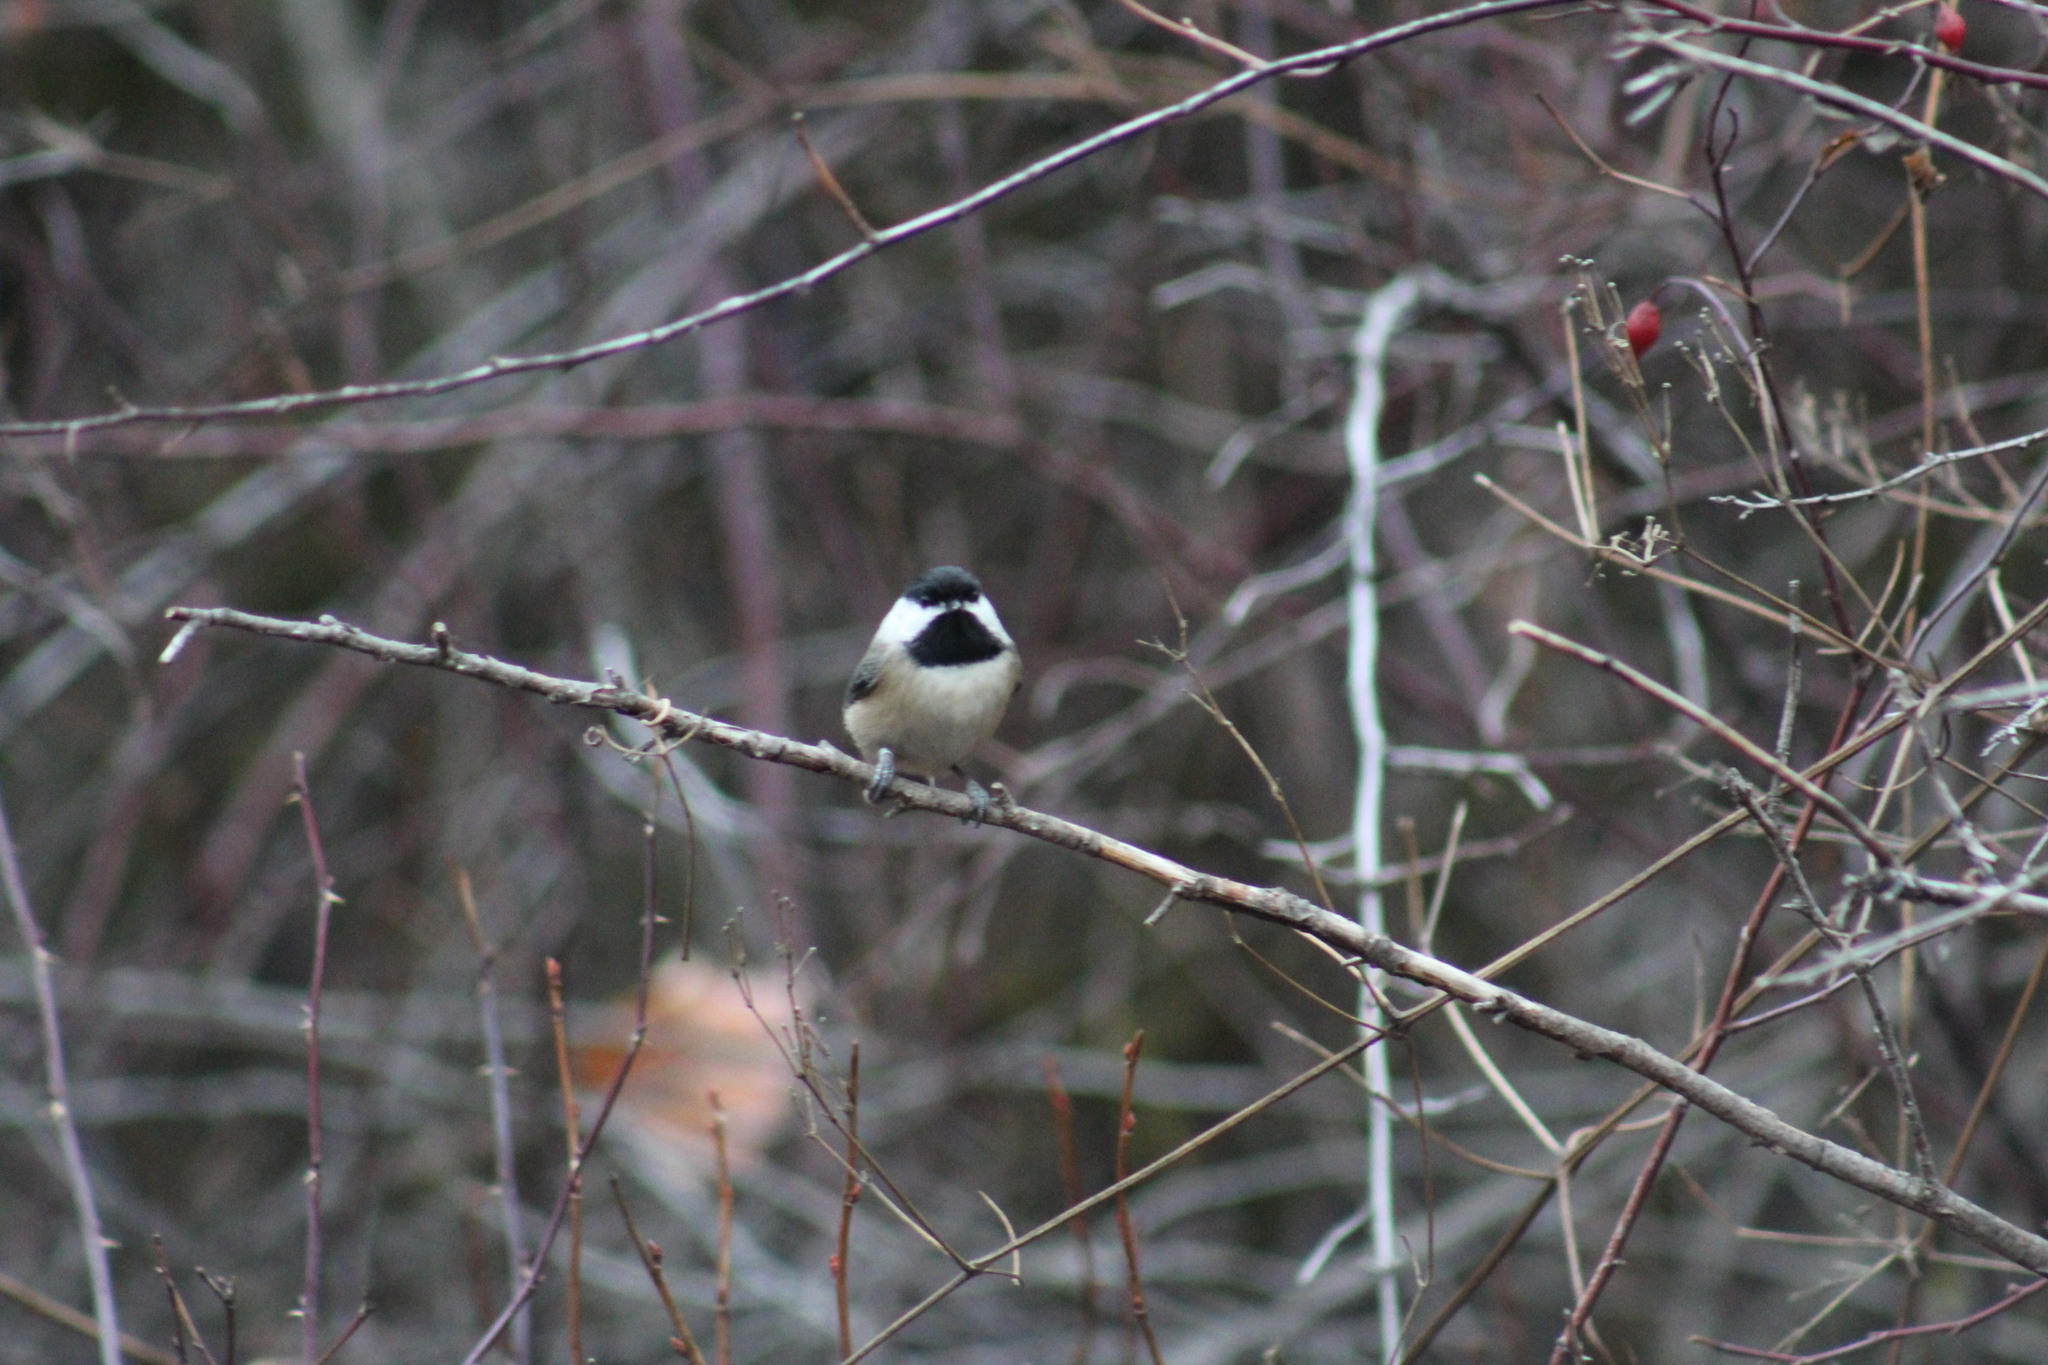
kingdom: Animalia
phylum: Chordata
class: Aves
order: Passeriformes
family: Paridae
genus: Poecile
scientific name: Poecile atricapillus
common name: Black-capped chickadee
